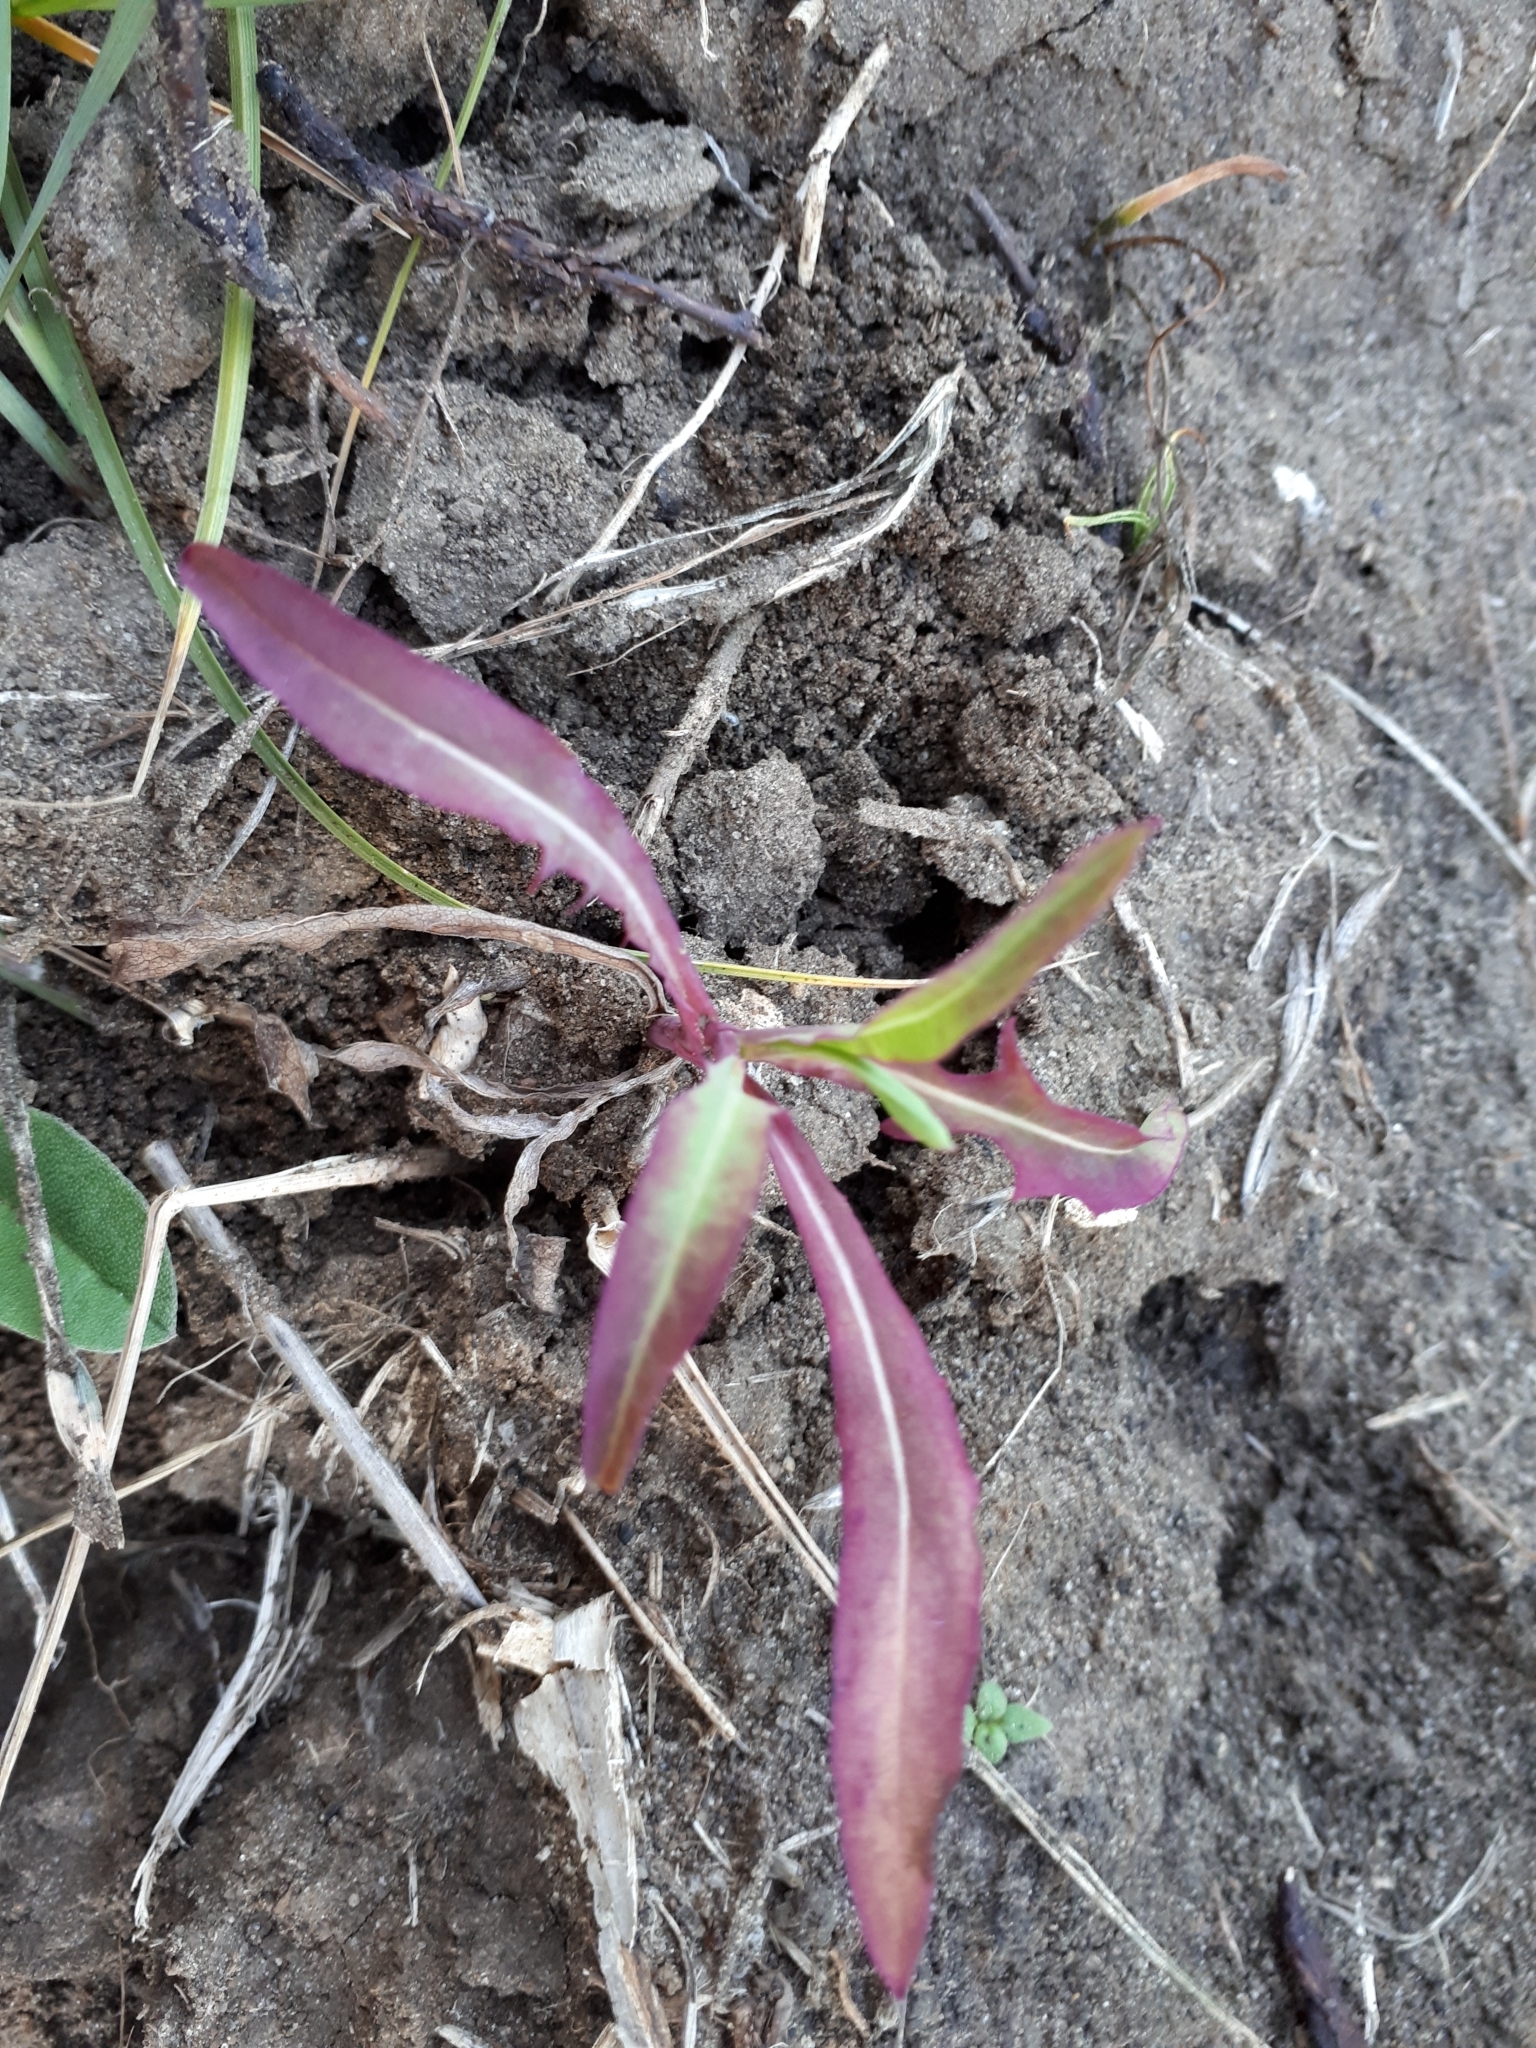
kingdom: Plantae
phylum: Tracheophyta
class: Magnoliopsida
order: Asterales
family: Asteraceae
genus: Sonchus
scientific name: Sonchus arvensis
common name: Perennial sow-thistle
